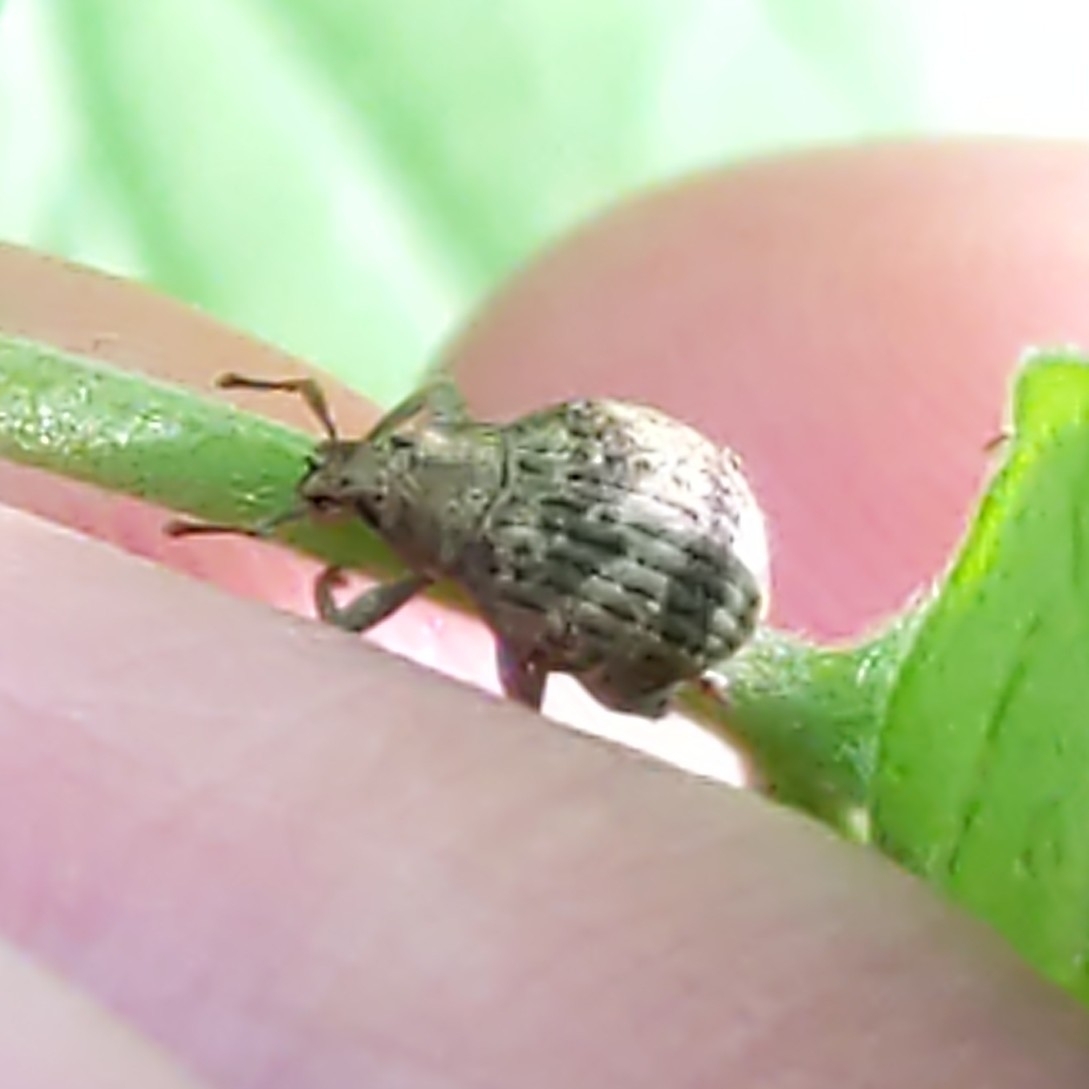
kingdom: Animalia
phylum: Arthropoda
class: Insecta
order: Coleoptera
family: Curculionidae
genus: Pseudocneorhinus
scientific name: Pseudocneorhinus bifasciatus
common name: Two-banded japanese weevil
